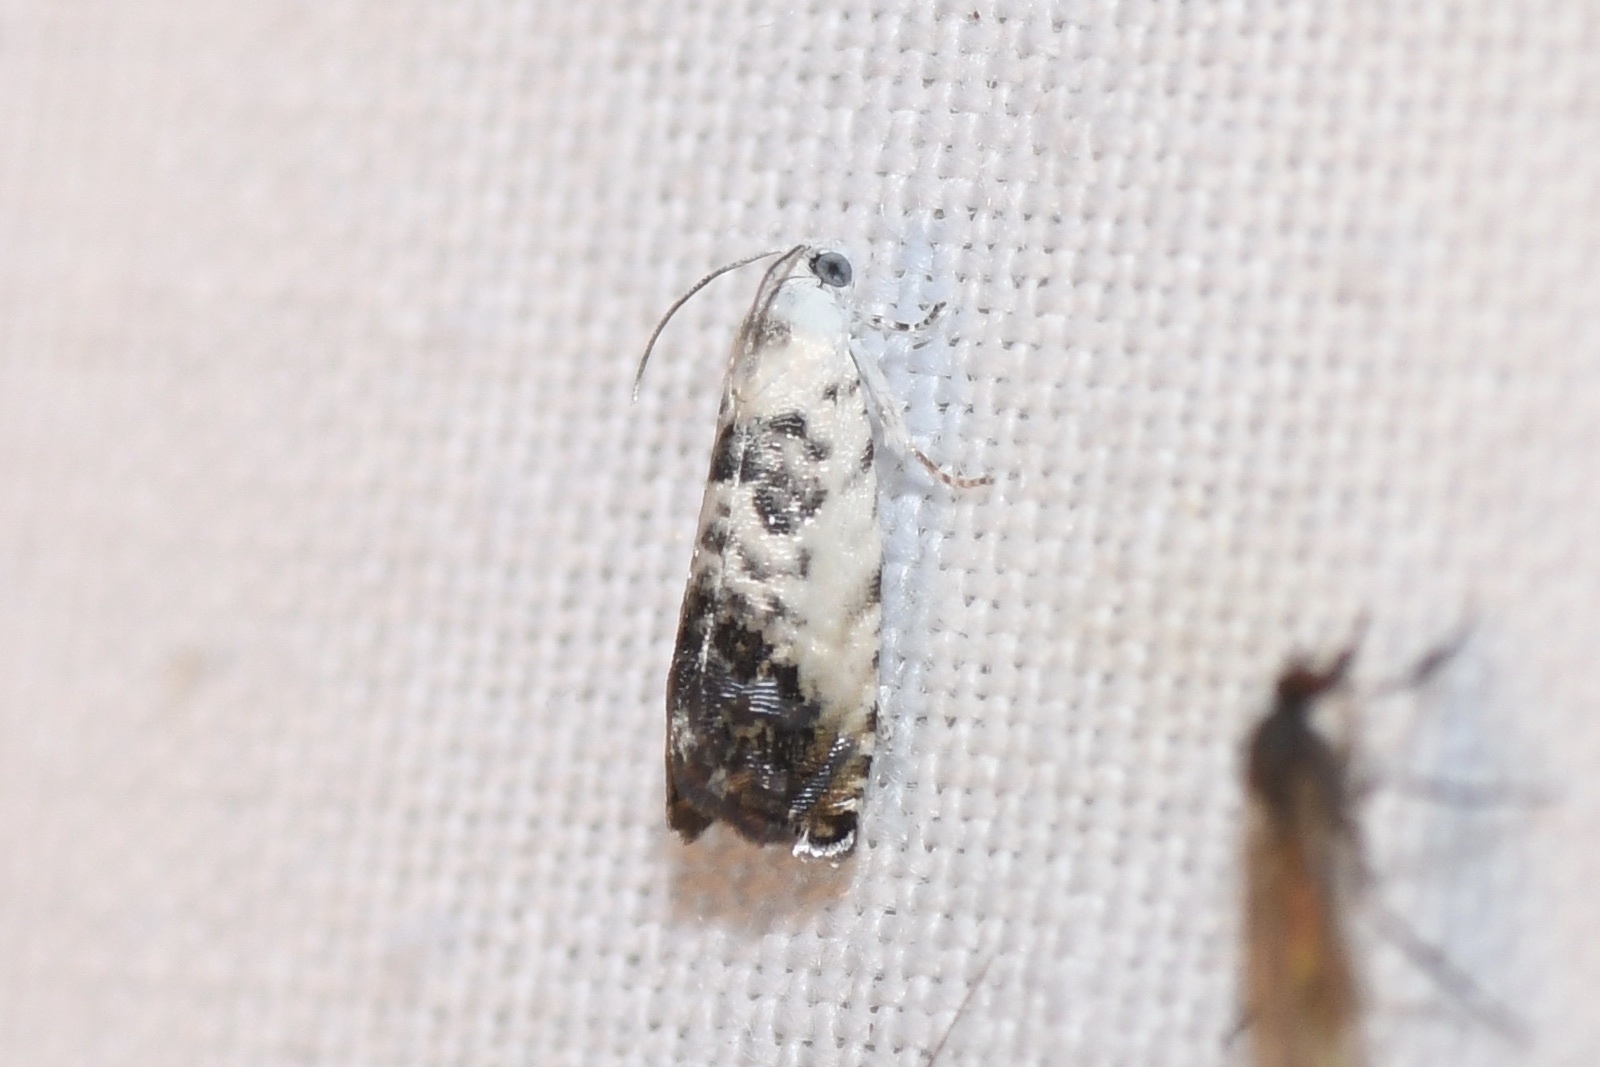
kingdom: Animalia
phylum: Arthropoda
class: Insecta
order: Lepidoptera
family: Tortricidae
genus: Cydia
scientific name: Cydia gallaesaliciana
